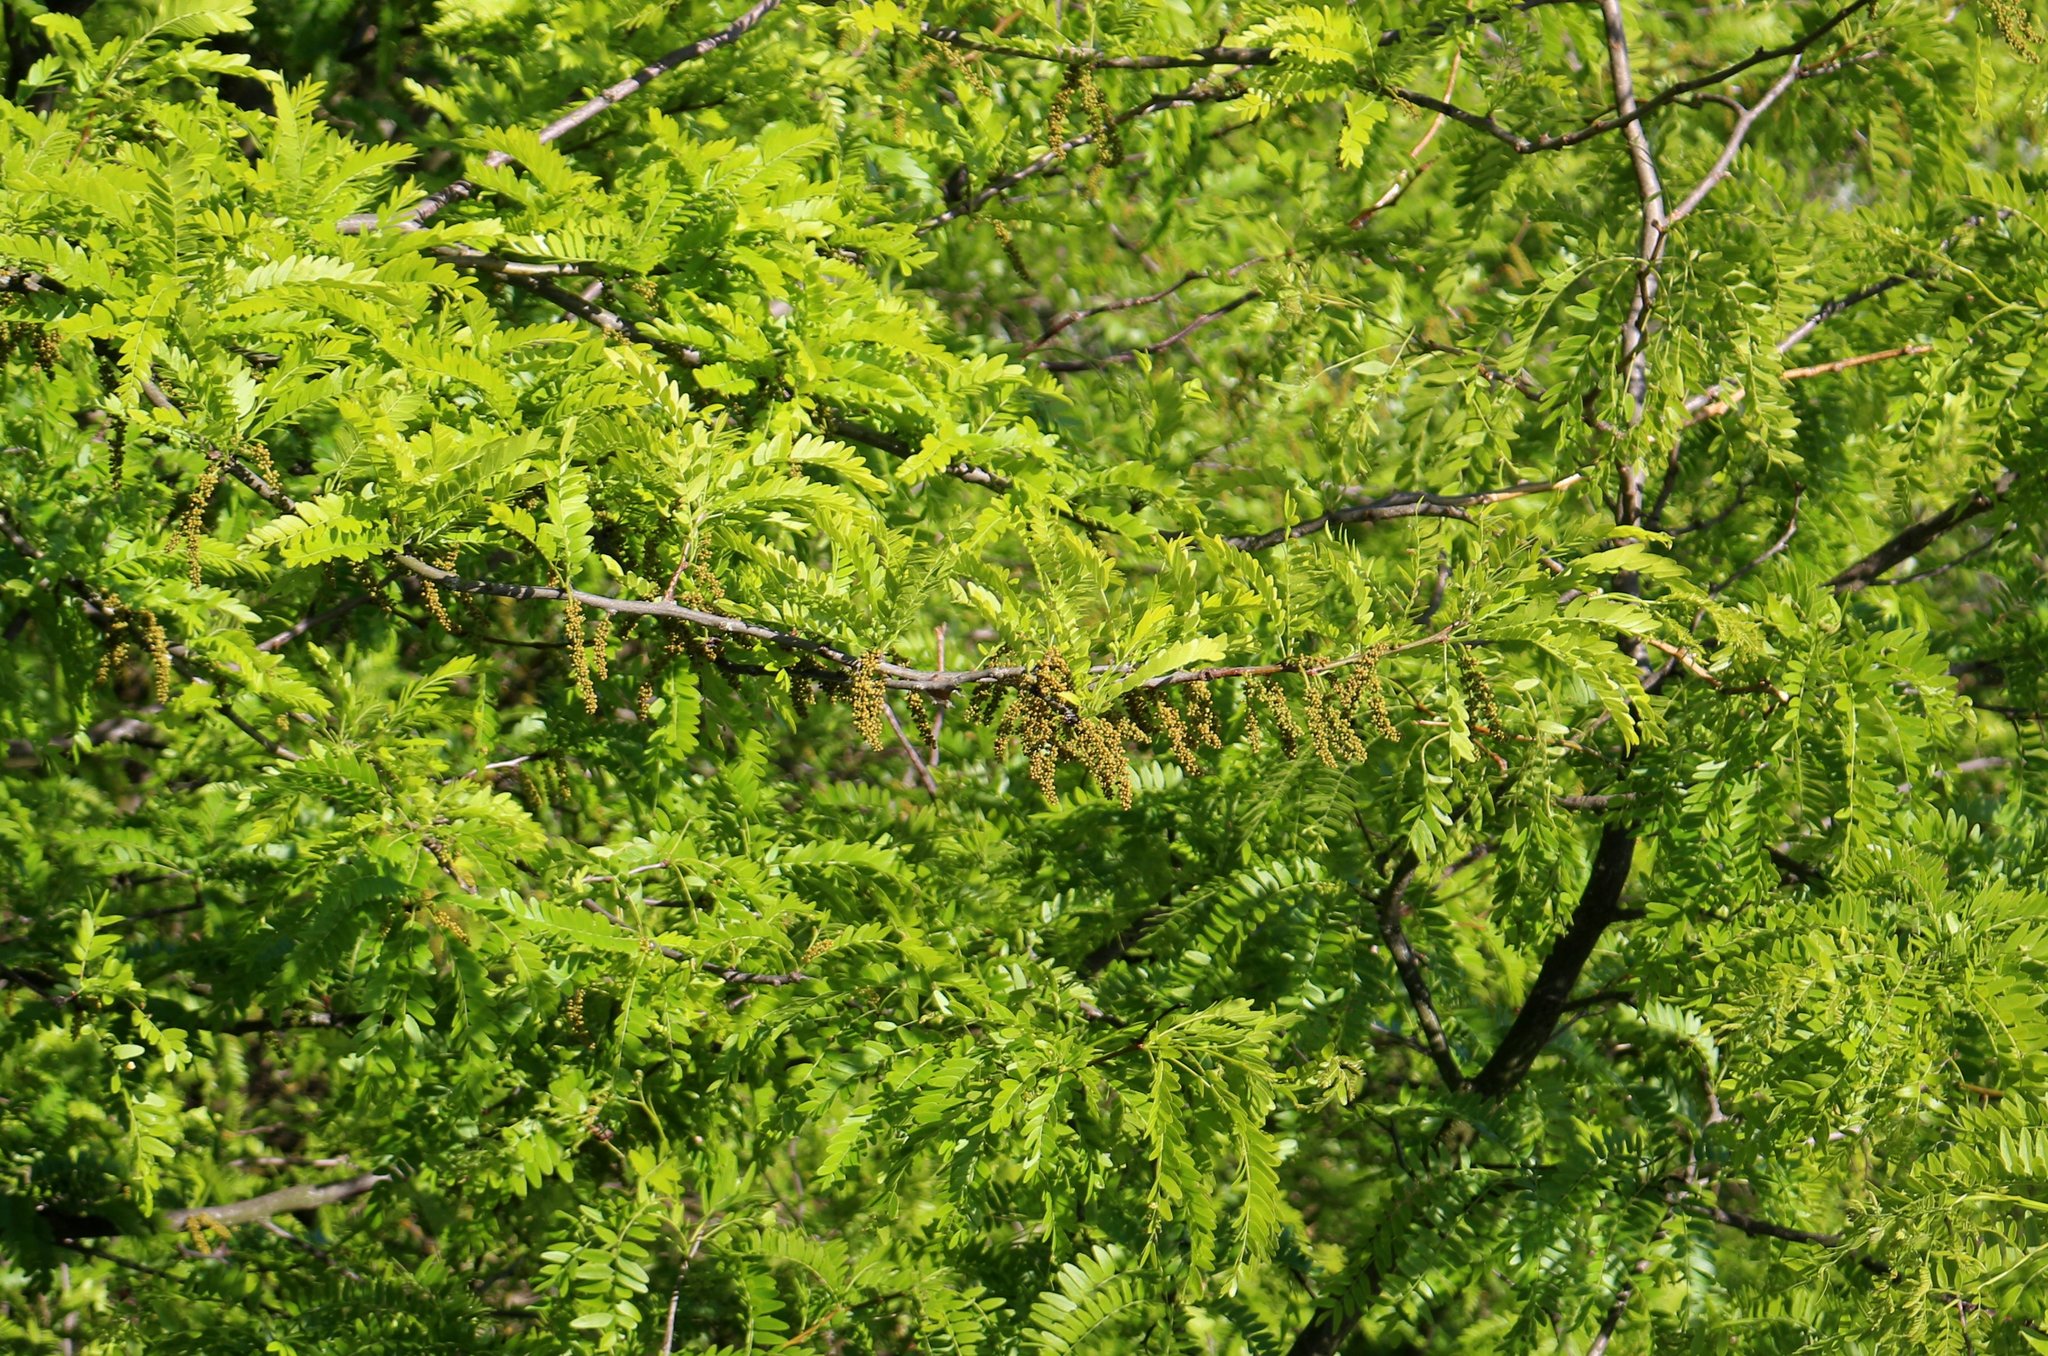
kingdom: Plantae
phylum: Tracheophyta
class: Magnoliopsida
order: Fabales
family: Fabaceae
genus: Gleditsia
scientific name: Gleditsia triacanthos
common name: Common honeylocust
